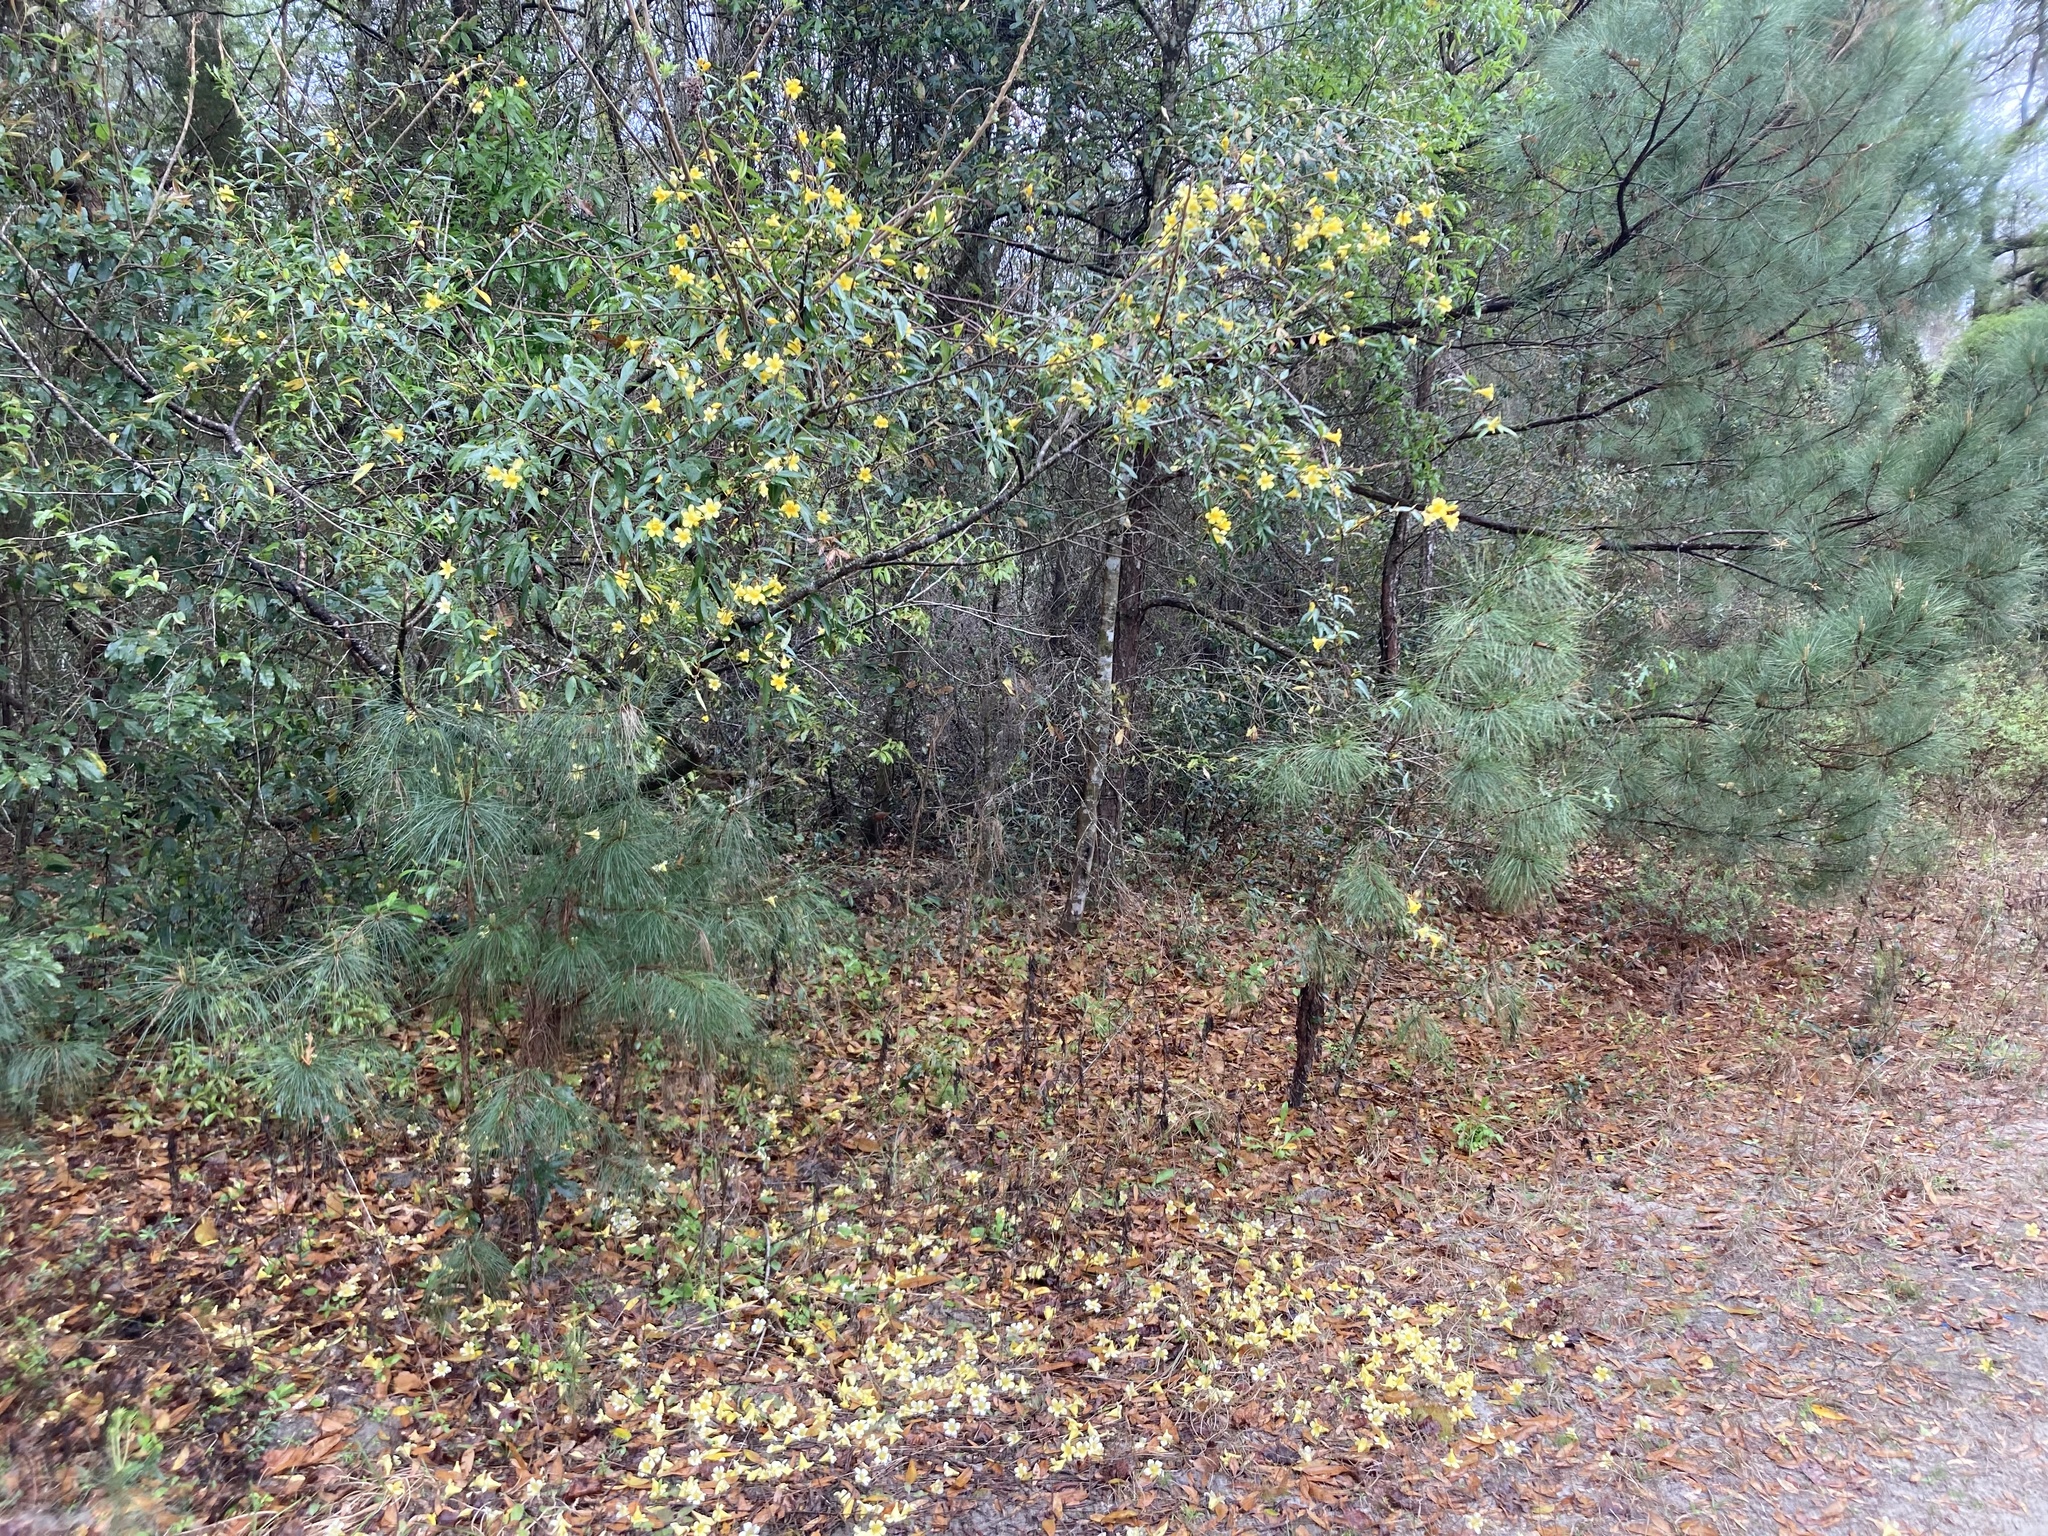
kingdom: Plantae
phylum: Tracheophyta
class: Magnoliopsida
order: Gentianales
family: Gelsemiaceae
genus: Gelsemium
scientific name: Gelsemium sempervirens
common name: Carolina-jasmine
